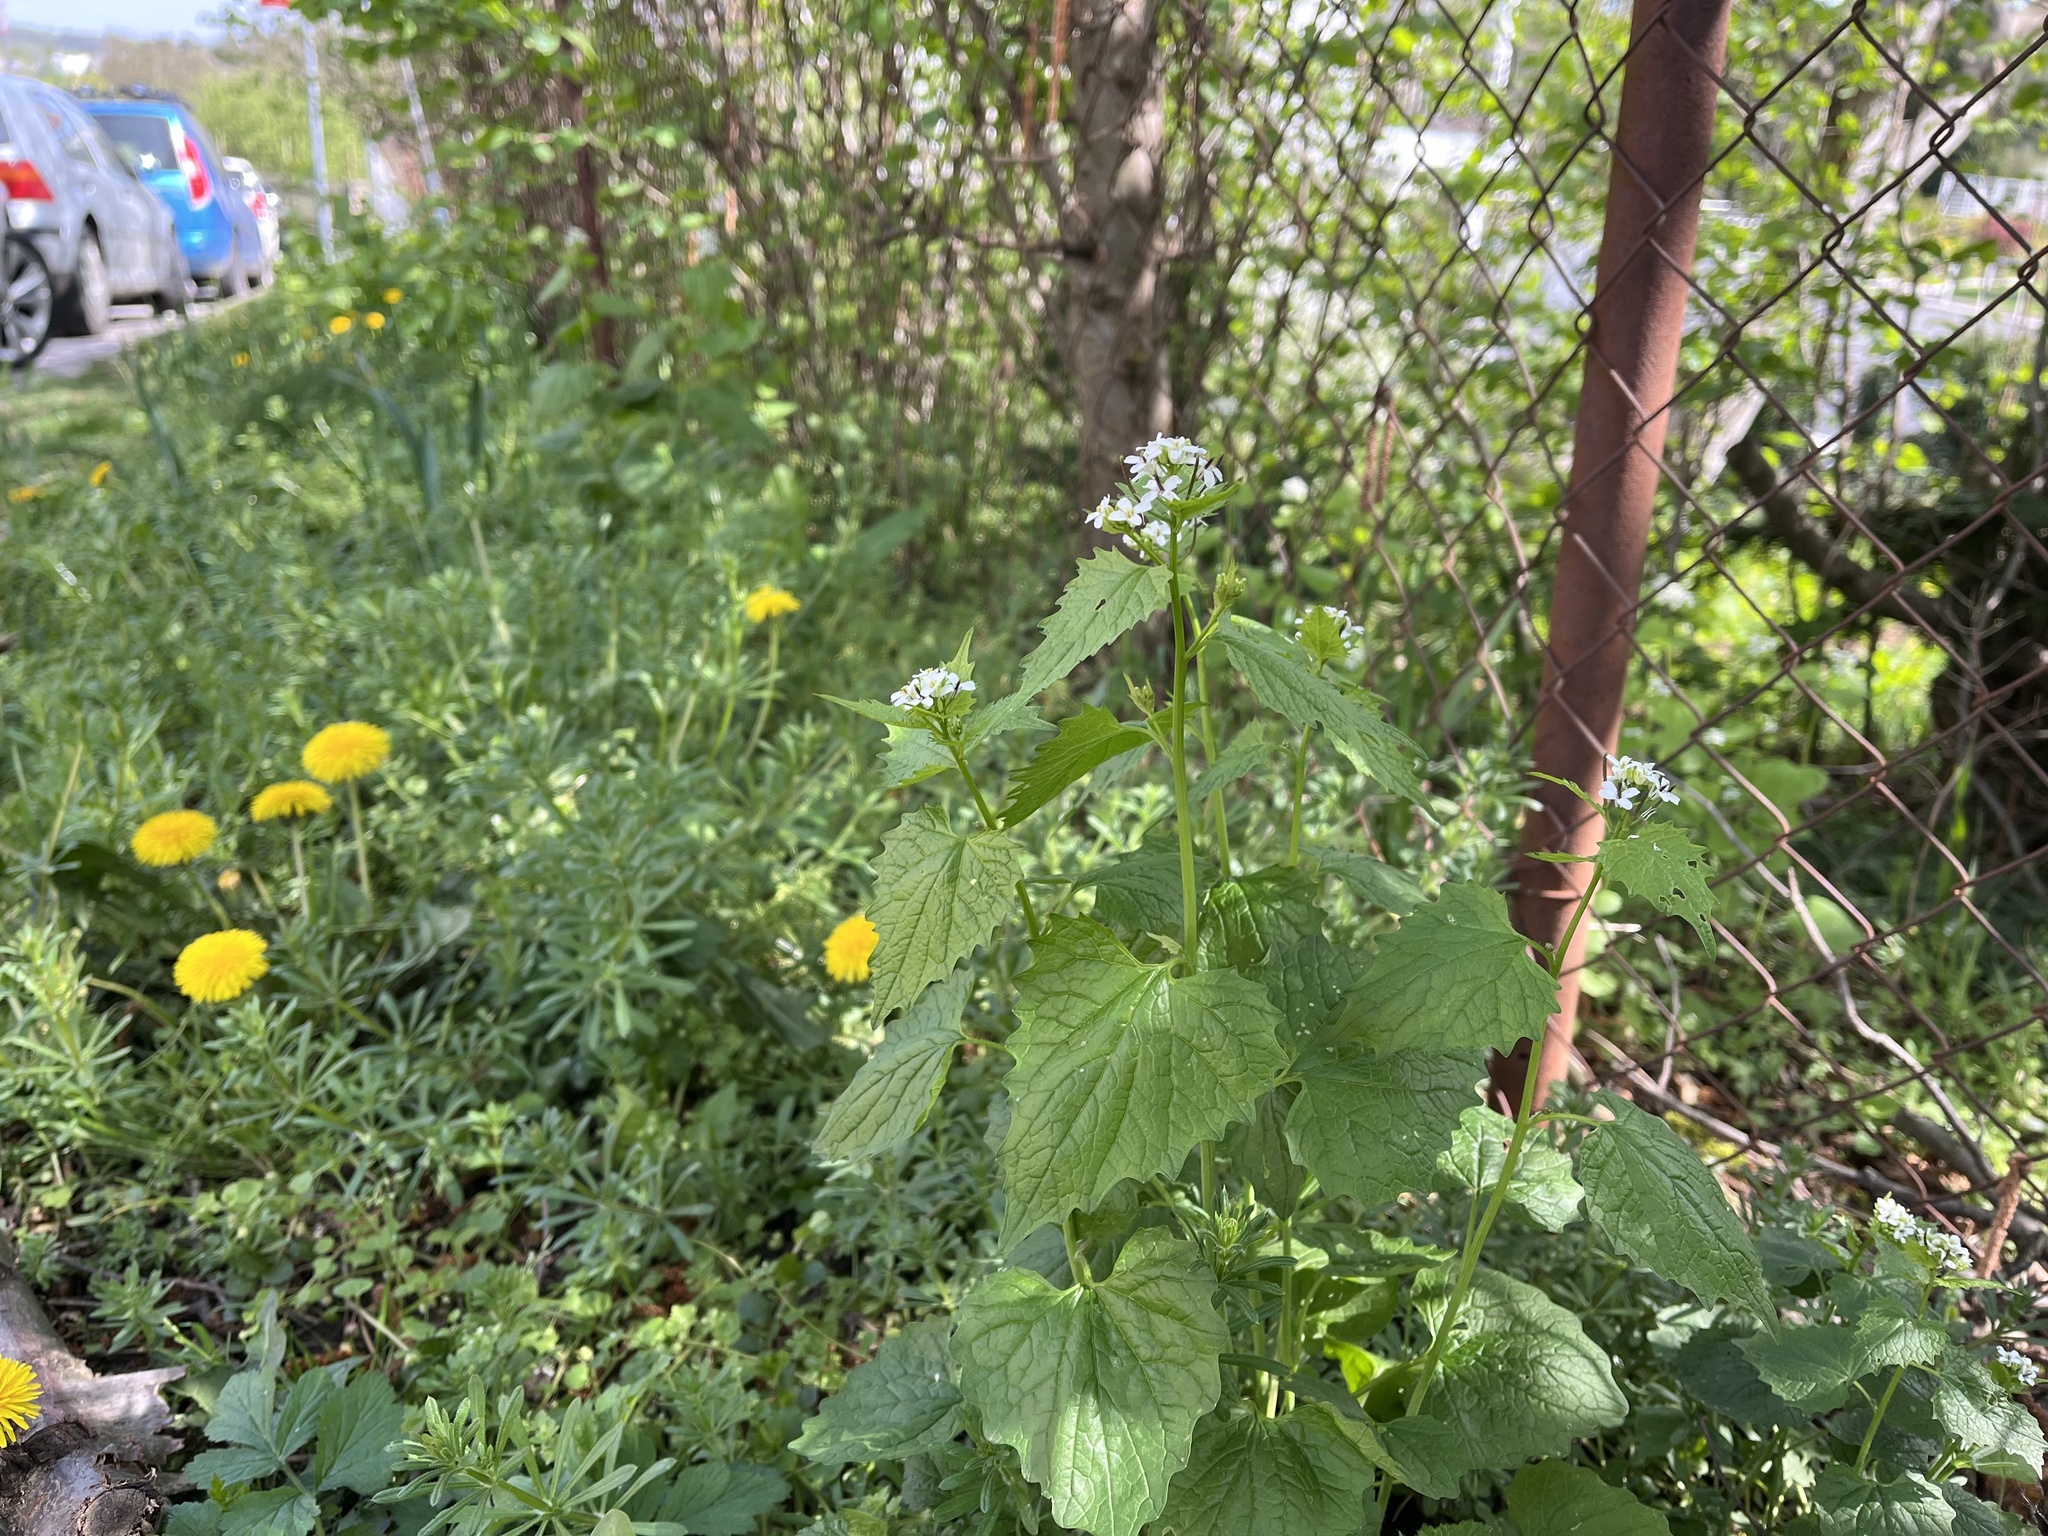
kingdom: Plantae
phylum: Tracheophyta
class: Magnoliopsida
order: Brassicales
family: Brassicaceae
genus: Alliaria
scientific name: Alliaria petiolata
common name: Garlic mustard
